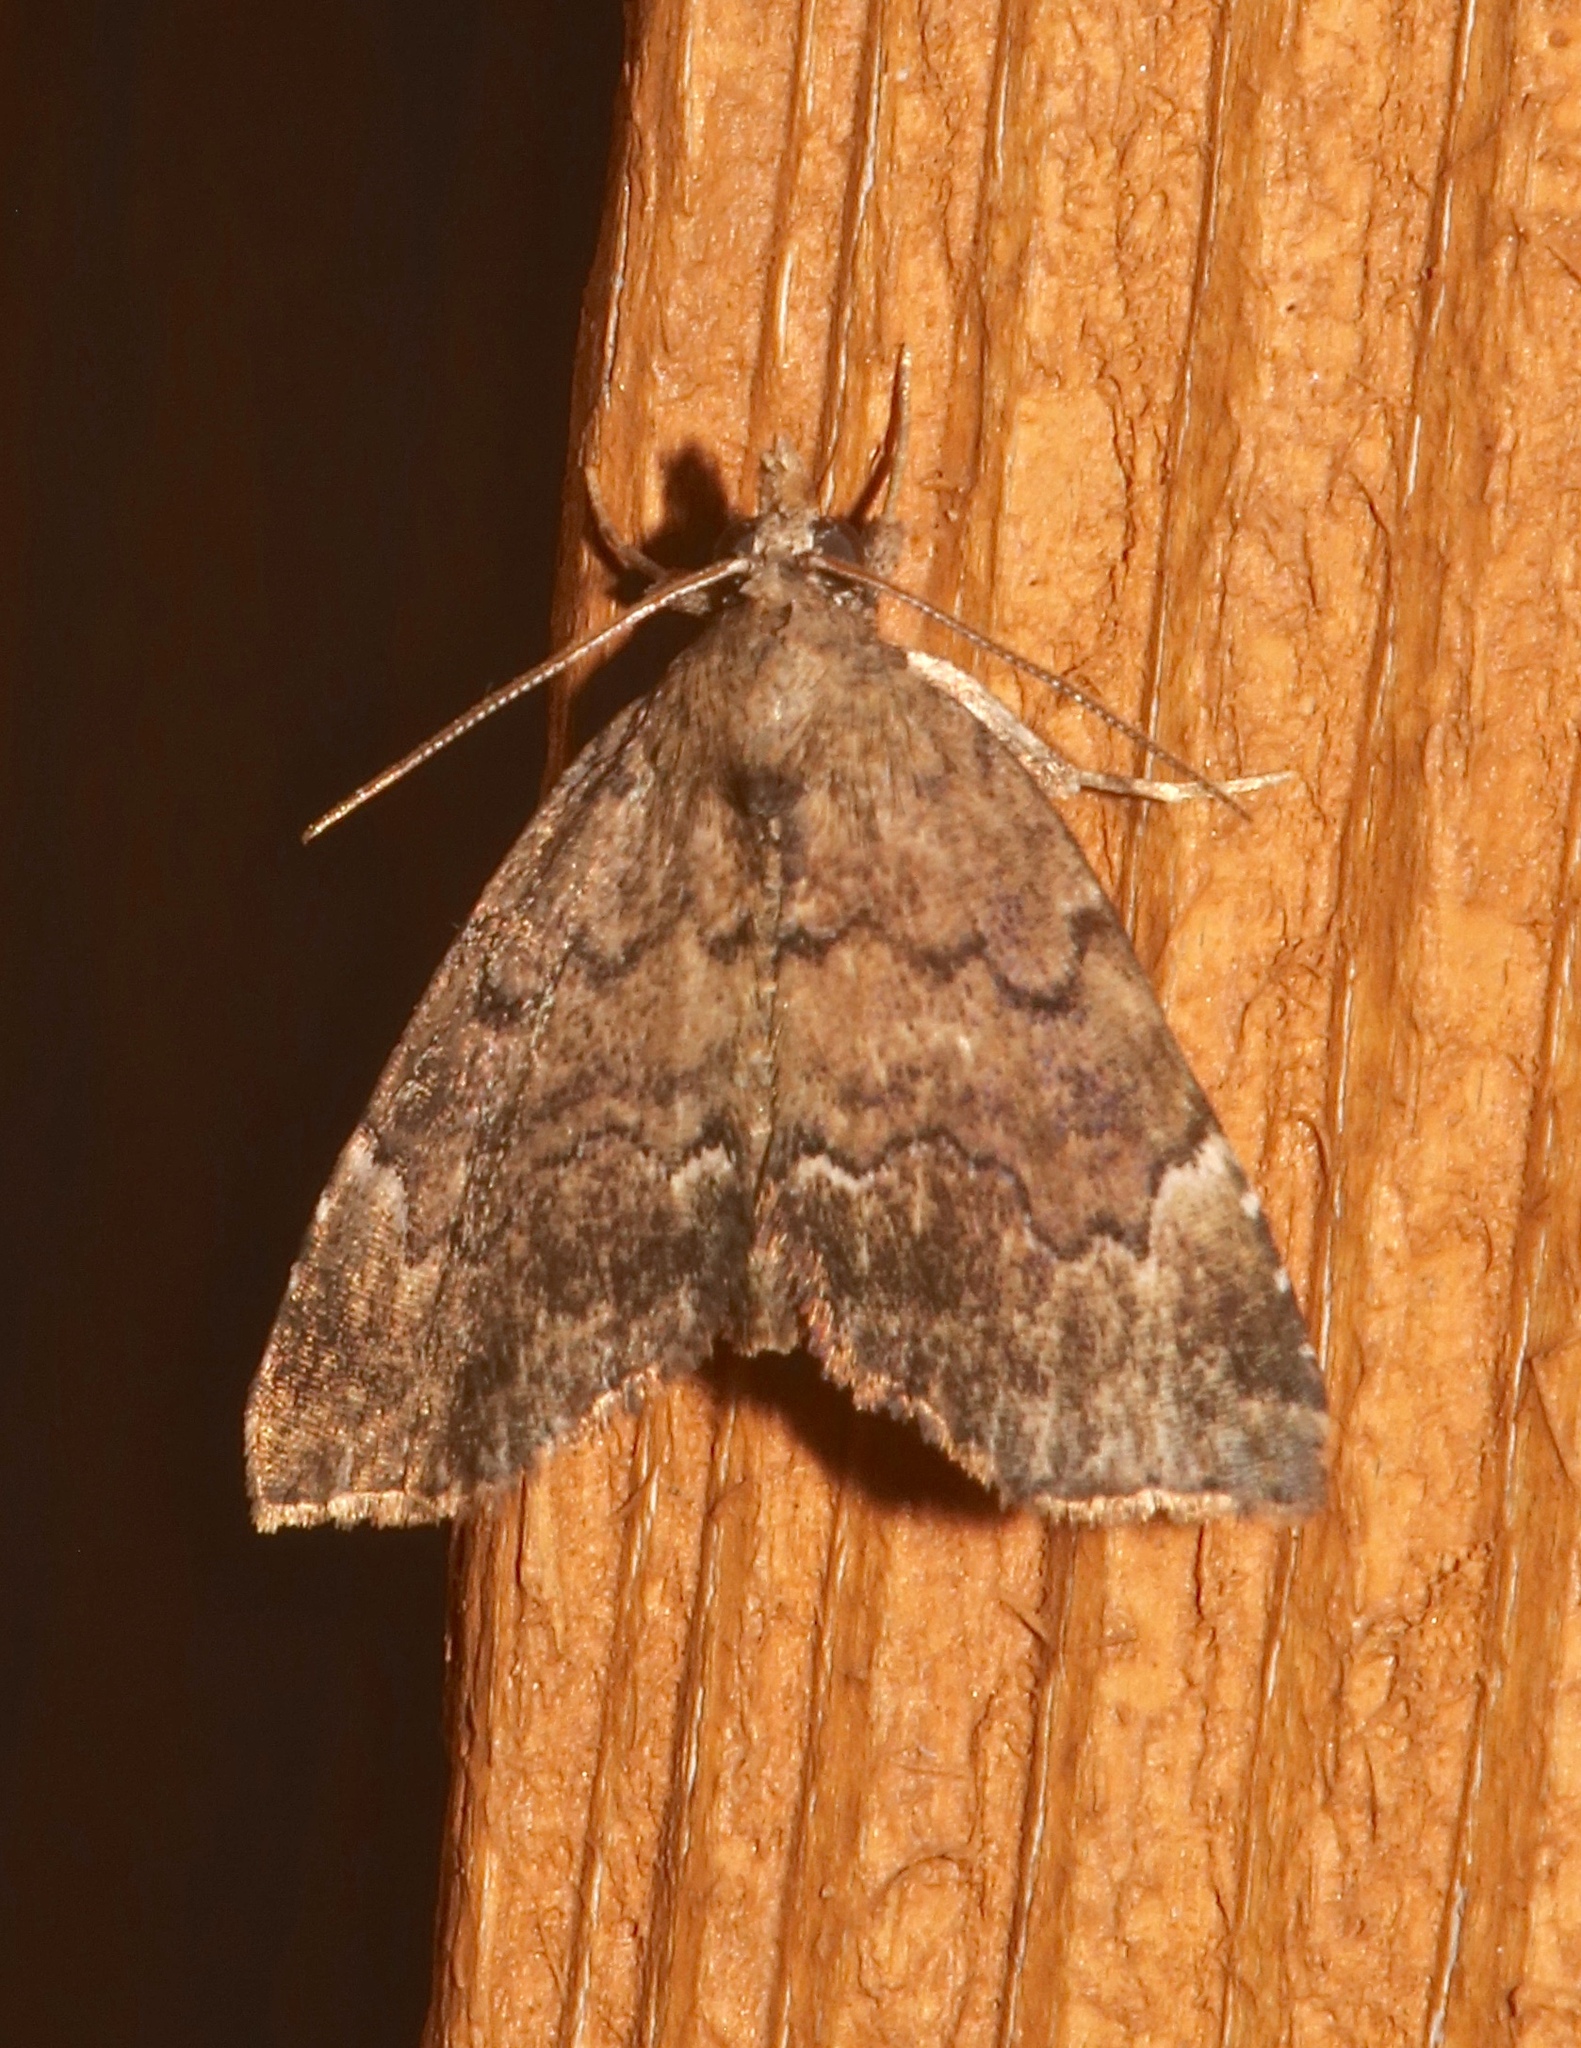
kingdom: Animalia
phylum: Arthropoda
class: Insecta
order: Lepidoptera
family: Erebidae
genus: Cutina
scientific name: Cutina aluticolor
